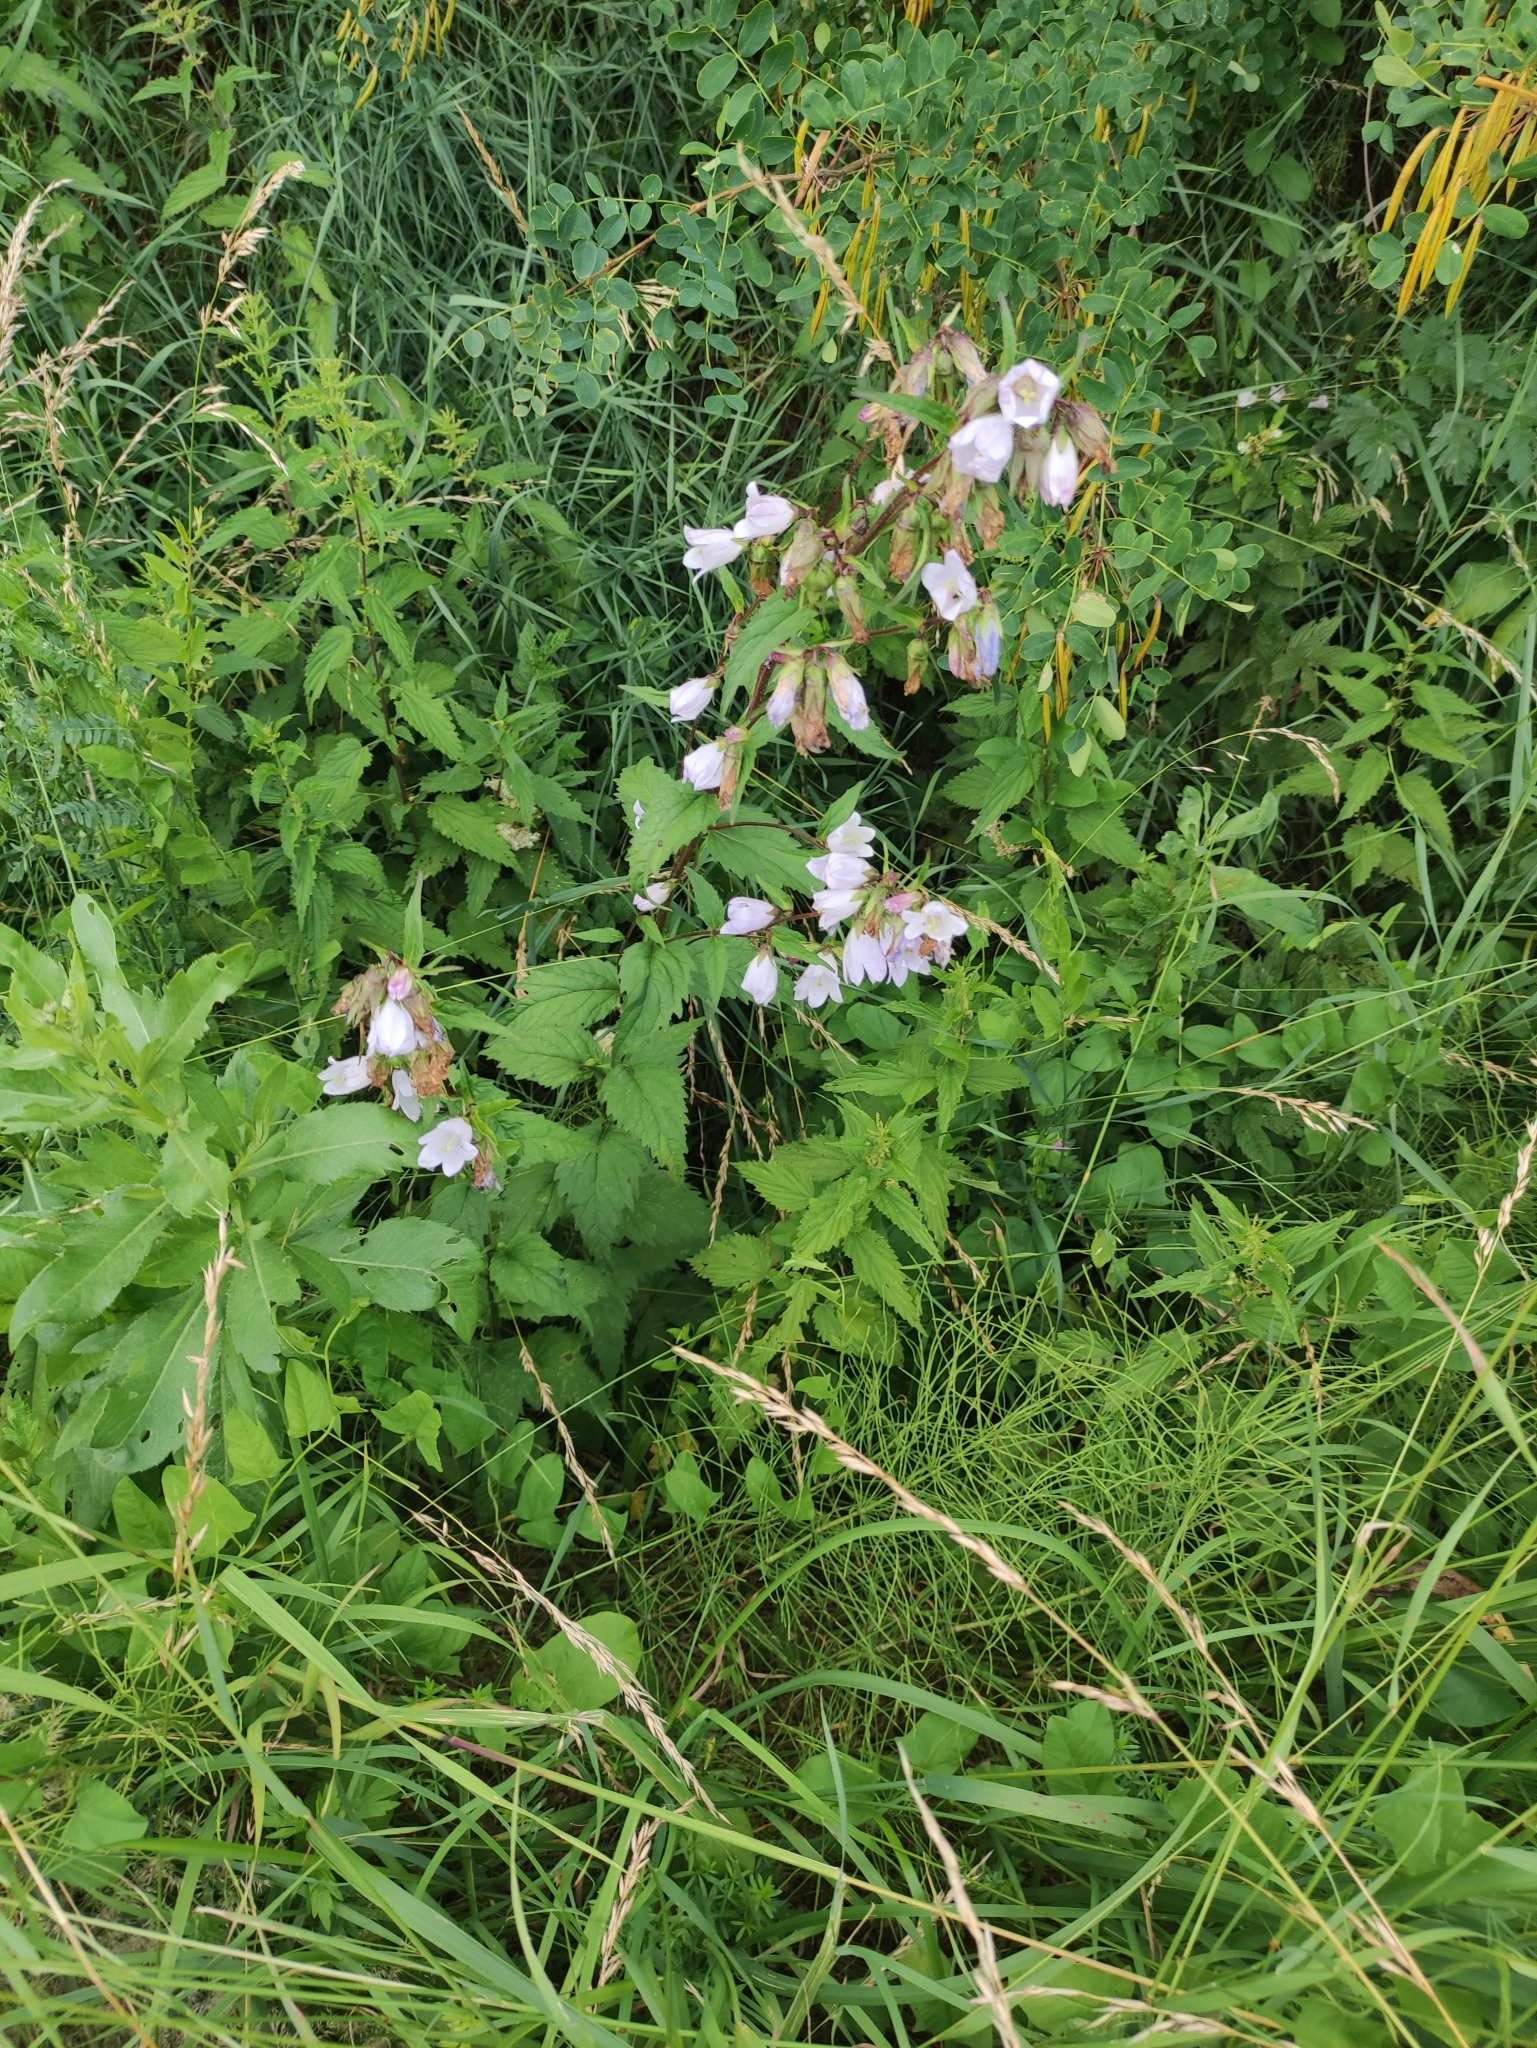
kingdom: Plantae
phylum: Tracheophyta
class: Magnoliopsida
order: Asterales
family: Campanulaceae
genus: Campanula
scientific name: Campanula trachelium
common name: Nettle-leaved bellflower
